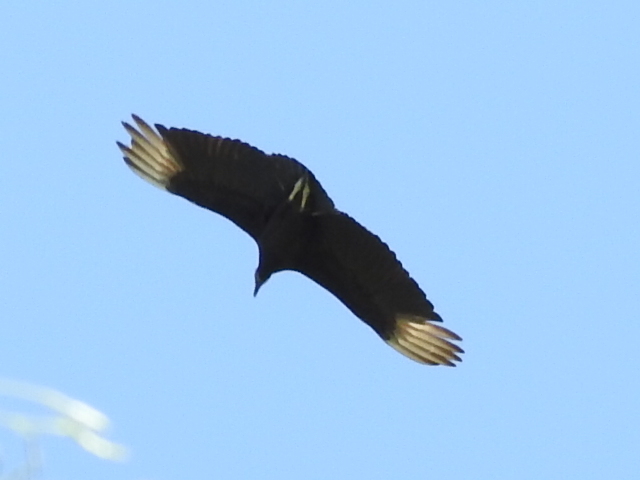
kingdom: Animalia
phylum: Chordata
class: Aves
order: Accipitriformes
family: Cathartidae
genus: Coragyps
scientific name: Coragyps atratus
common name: Black vulture
